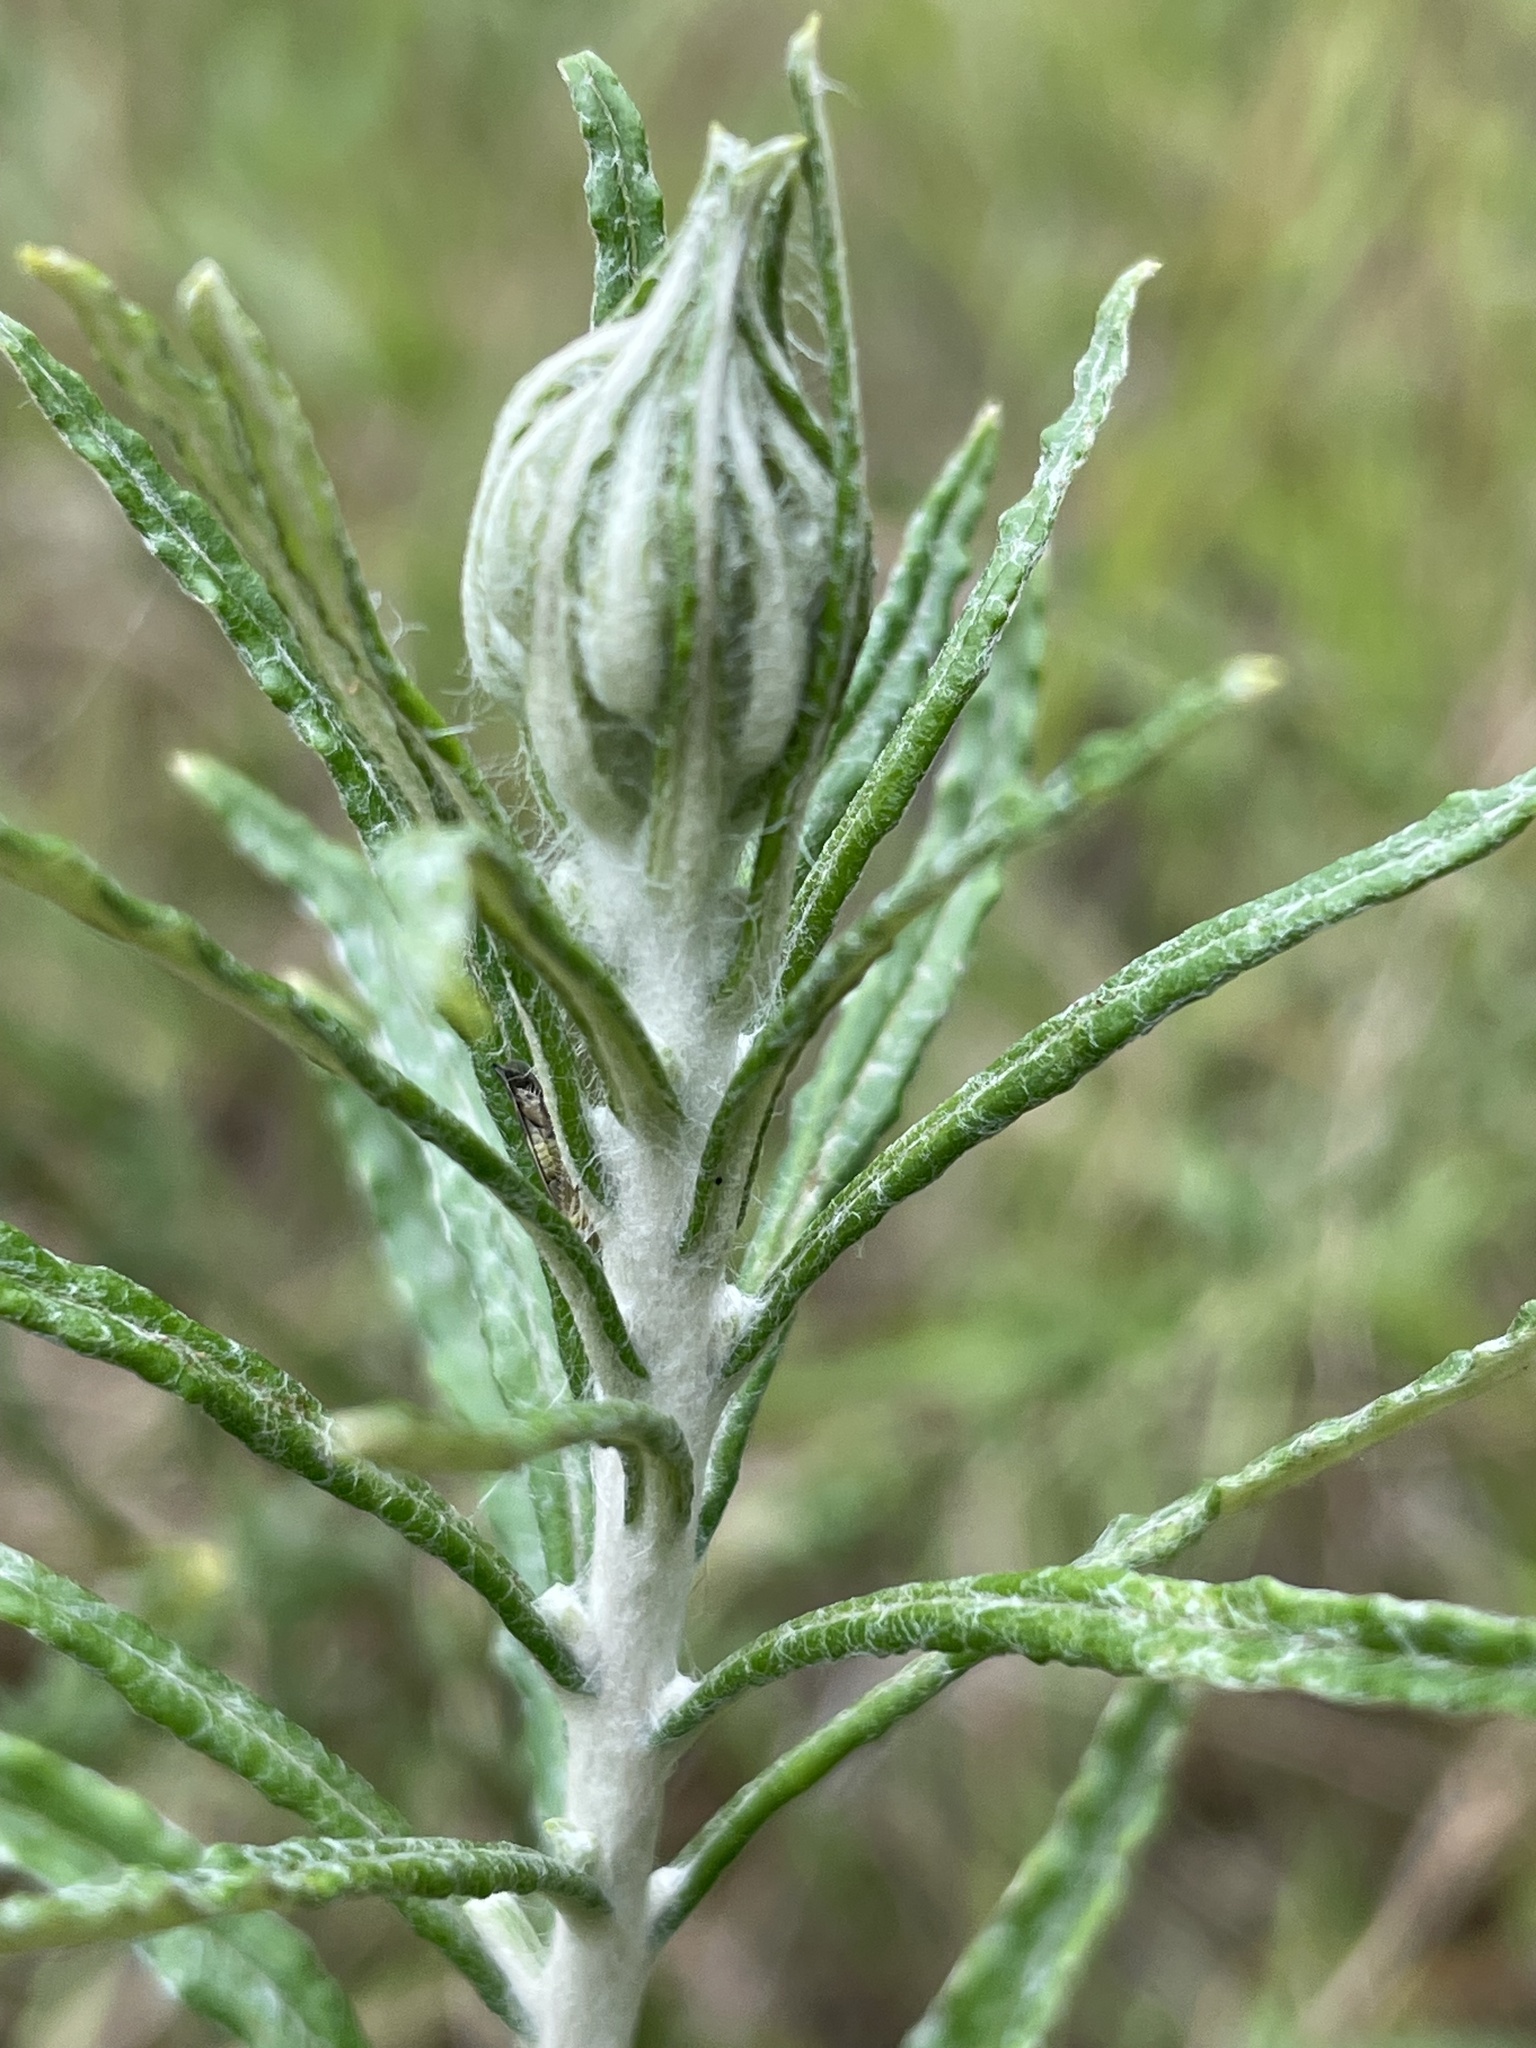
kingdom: Plantae
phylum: Tracheophyta
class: Magnoliopsida
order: Asterales
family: Asteraceae
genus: Pseudognaphalium
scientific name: Pseudognaphalium obtusifolium
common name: Eastern rabbit-tobacco
